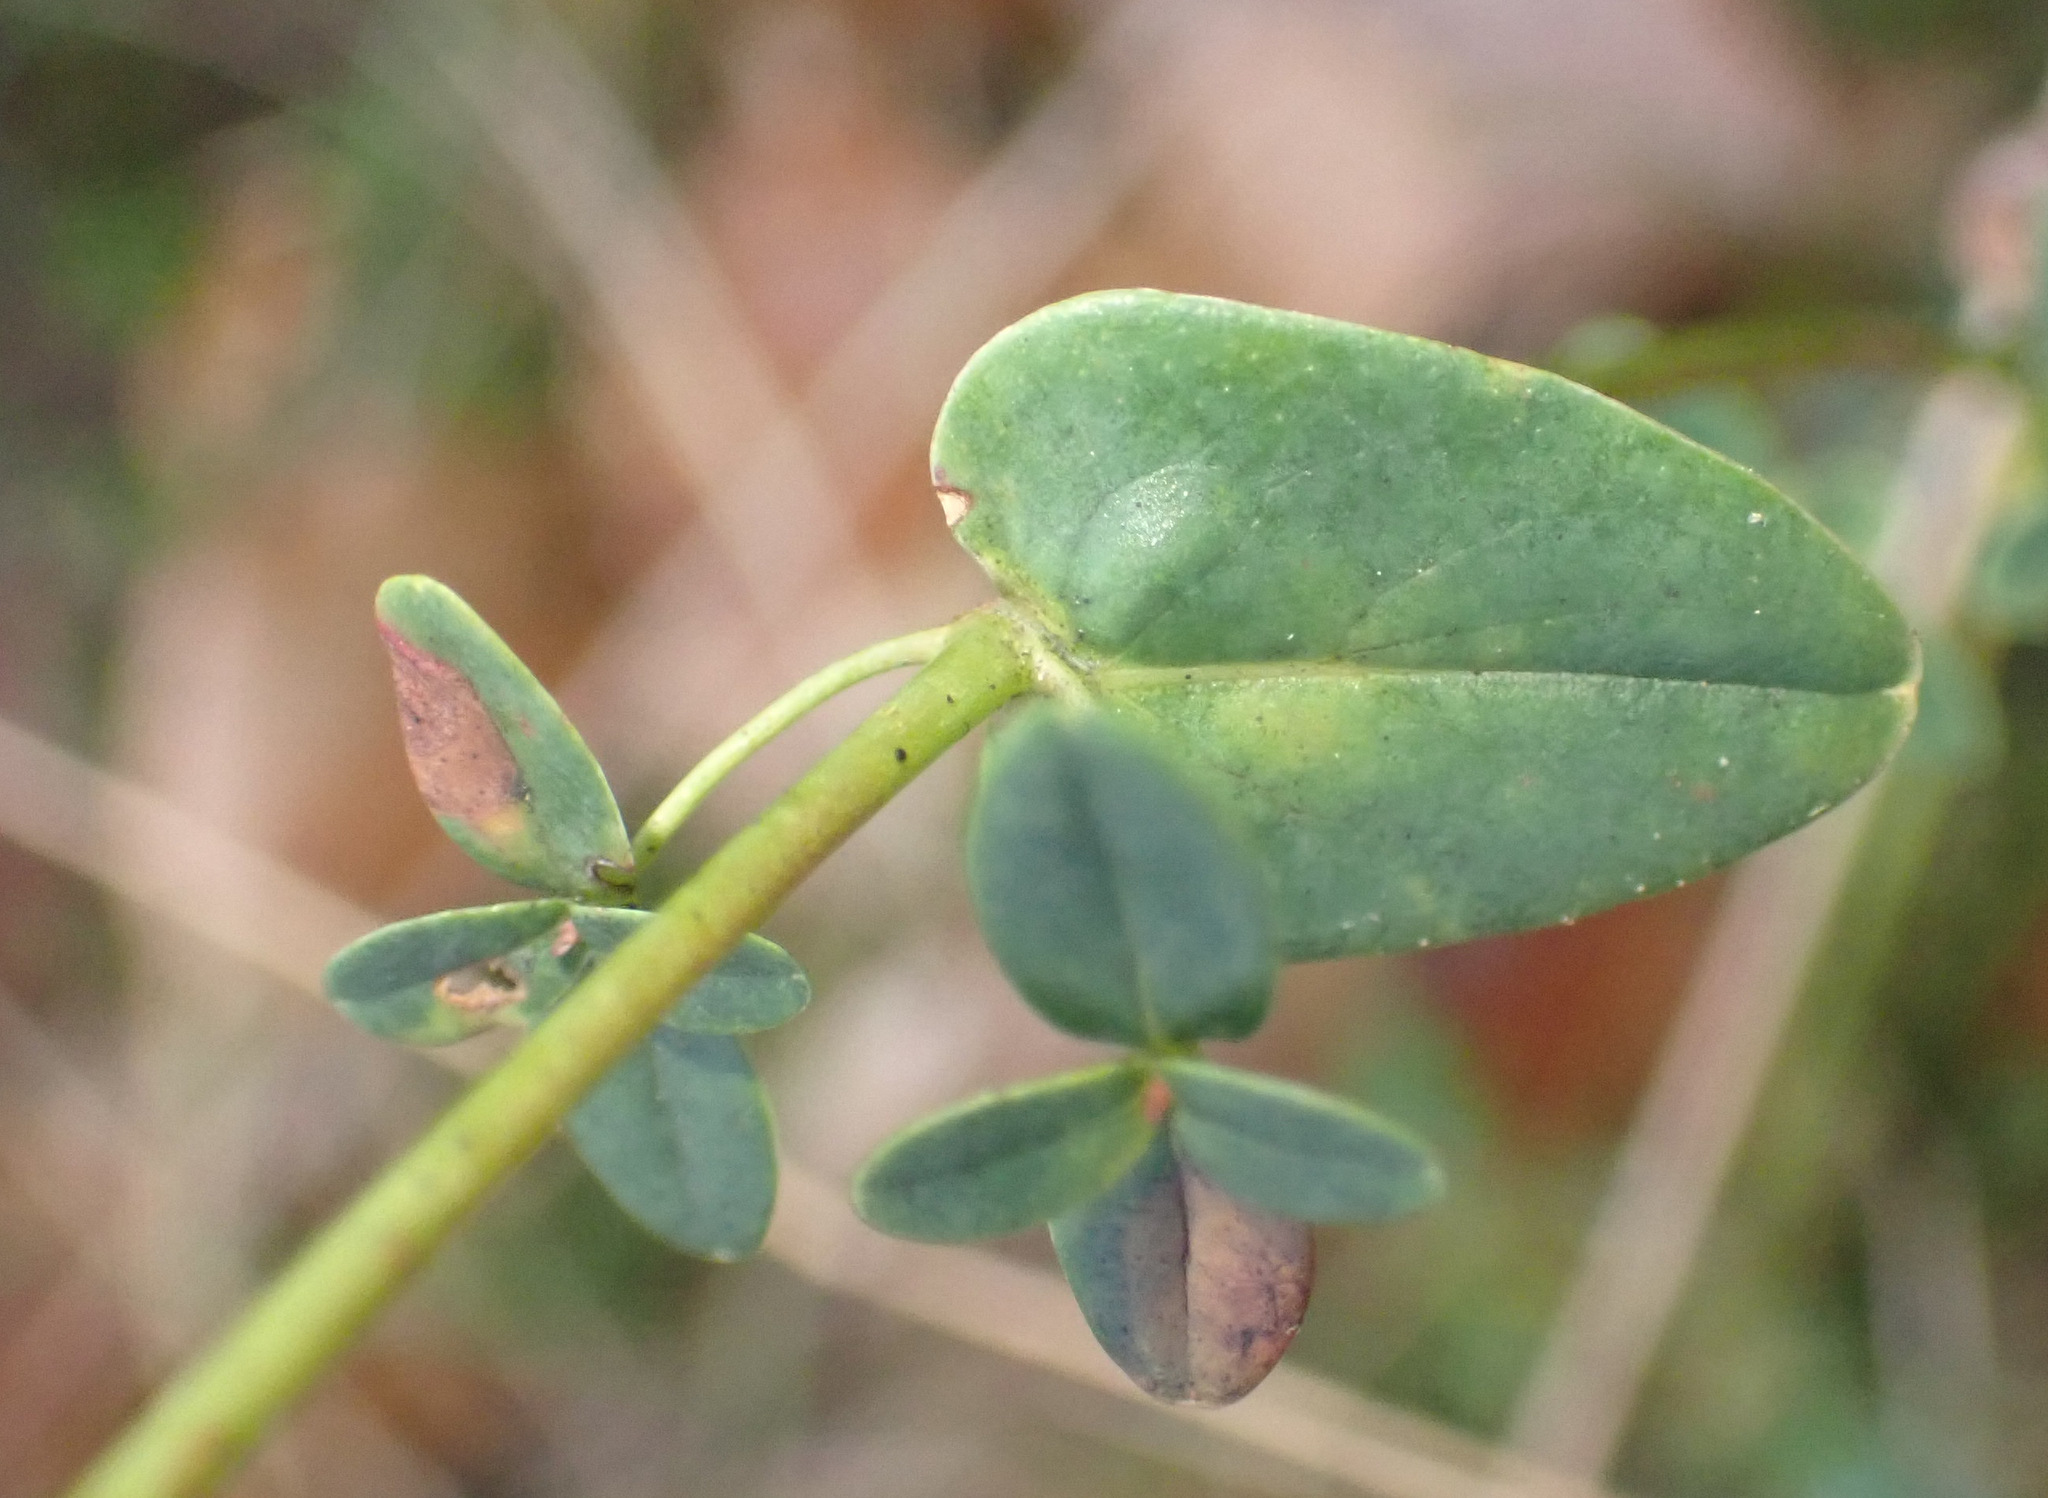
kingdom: Plantae
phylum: Tracheophyta
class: Magnoliopsida
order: Malpighiales
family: Hypericaceae
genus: Hypericum
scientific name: Hypericum pulchrum
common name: Slender st. john's-wort
